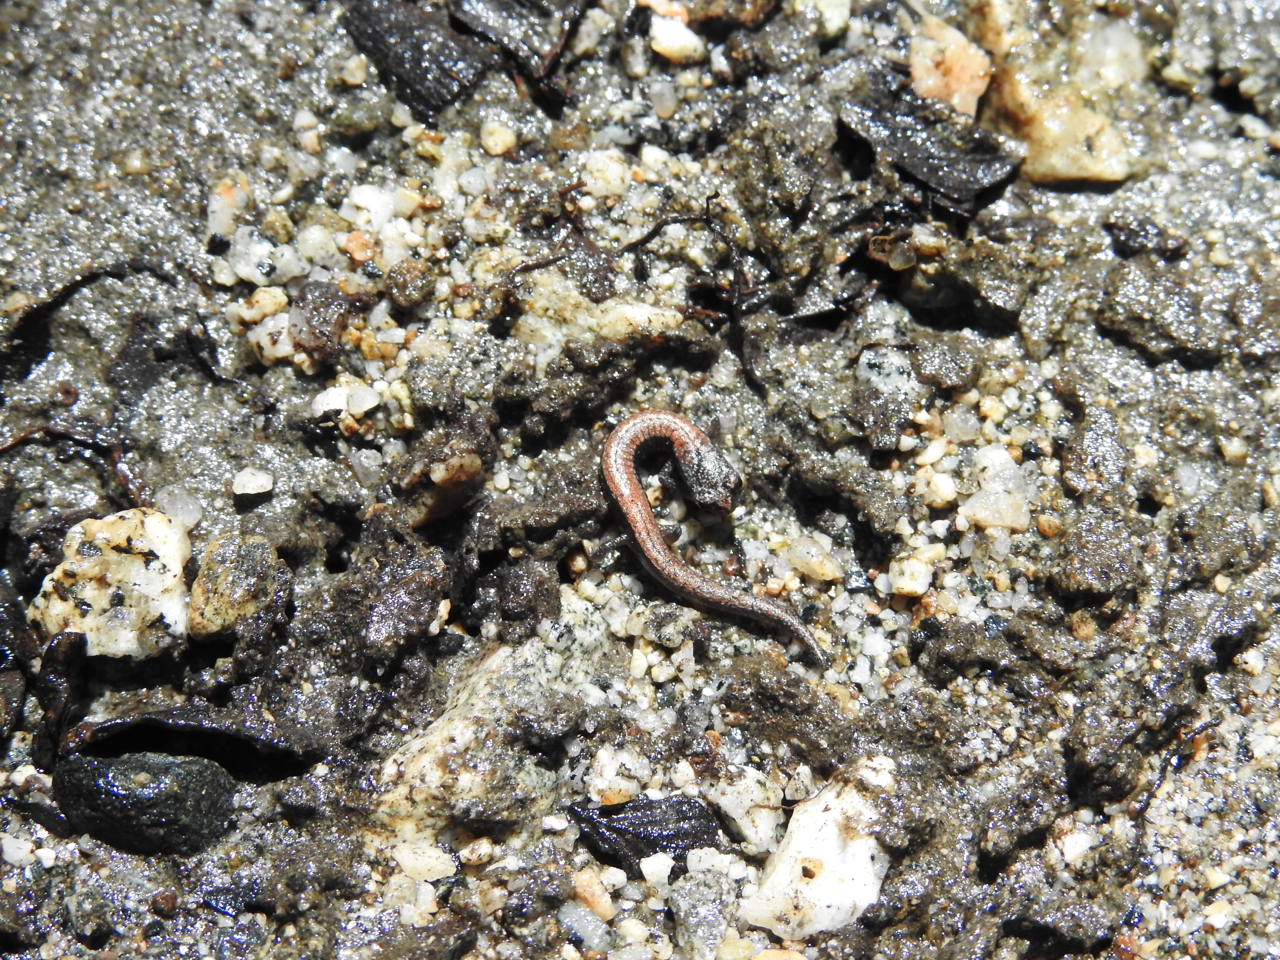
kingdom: Animalia
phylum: Chordata
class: Amphibia
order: Caudata
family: Plethodontidae
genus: Batrachoseps
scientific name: Batrachoseps nigriventris
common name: Black-bellied slender salamander
